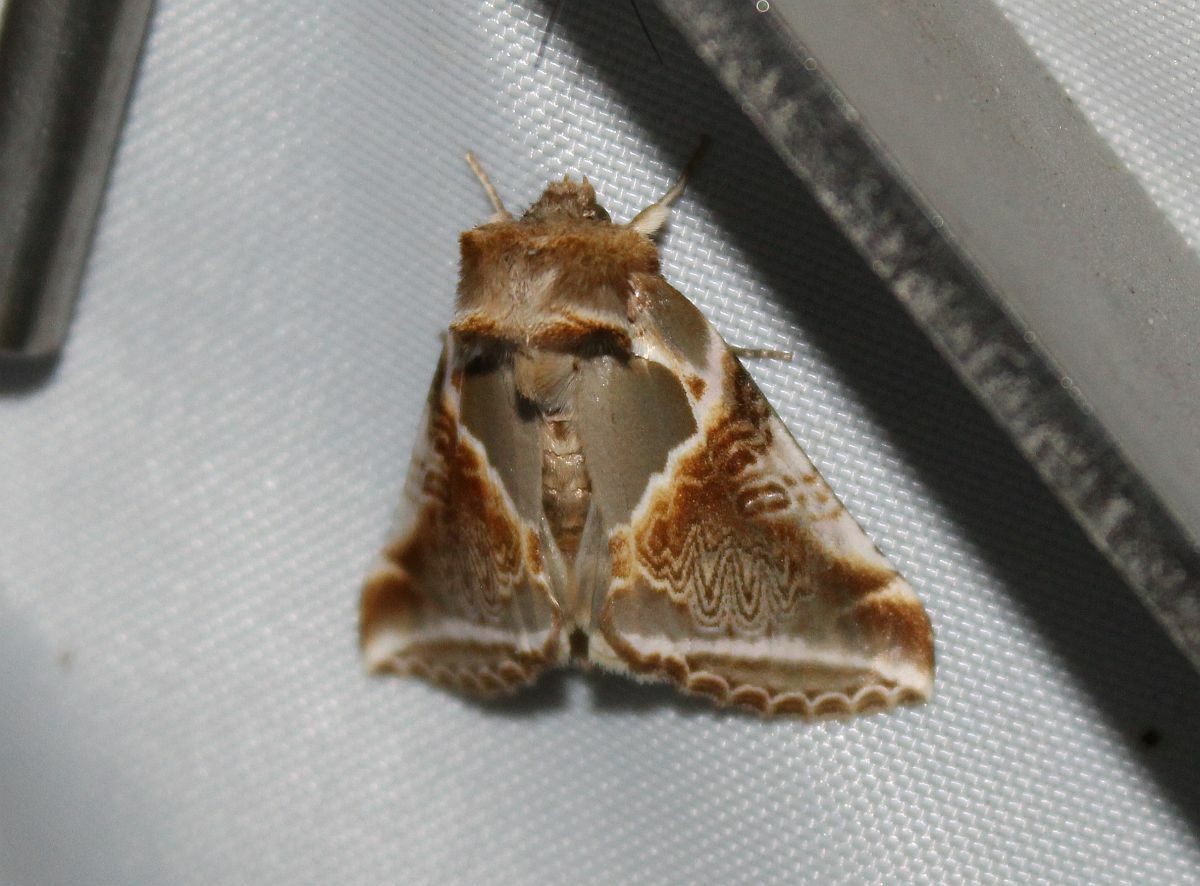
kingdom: Animalia
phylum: Arthropoda
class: Insecta
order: Lepidoptera
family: Drepanidae
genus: Habrosyne
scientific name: Habrosyne pyritoides
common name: Buff arches
